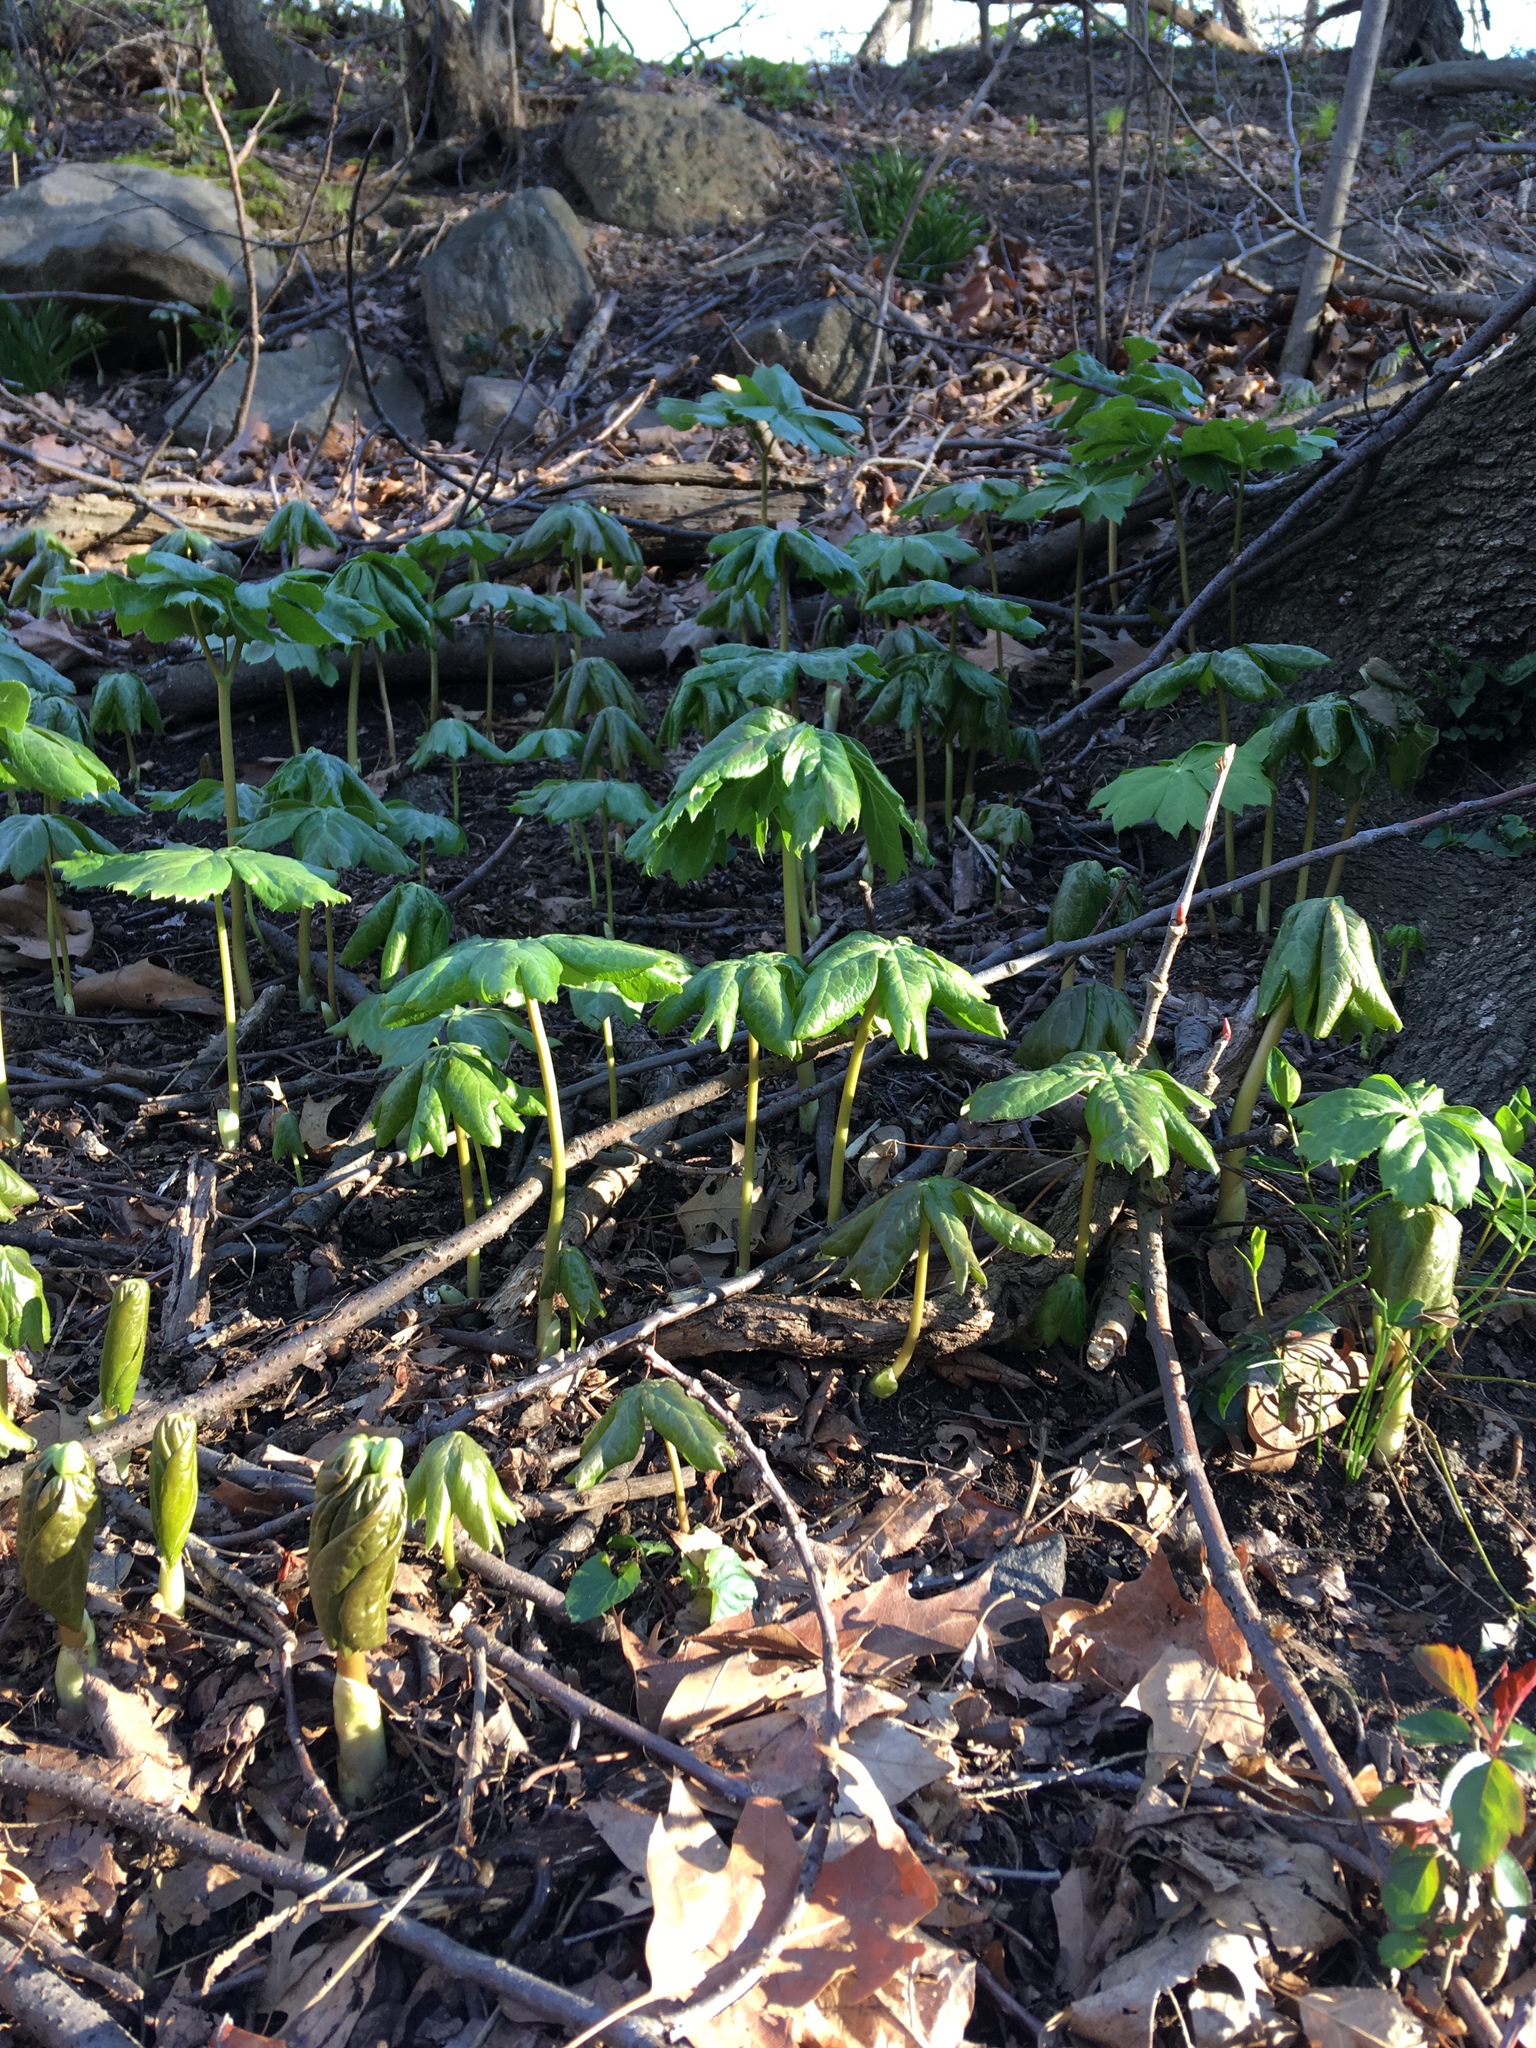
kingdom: Plantae
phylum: Tracheophyta
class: Magnoliopsida
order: Ranunculales
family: Berberidaceae
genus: Podophyllum
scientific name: Podophyllum peltatum
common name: Wild mandrake
